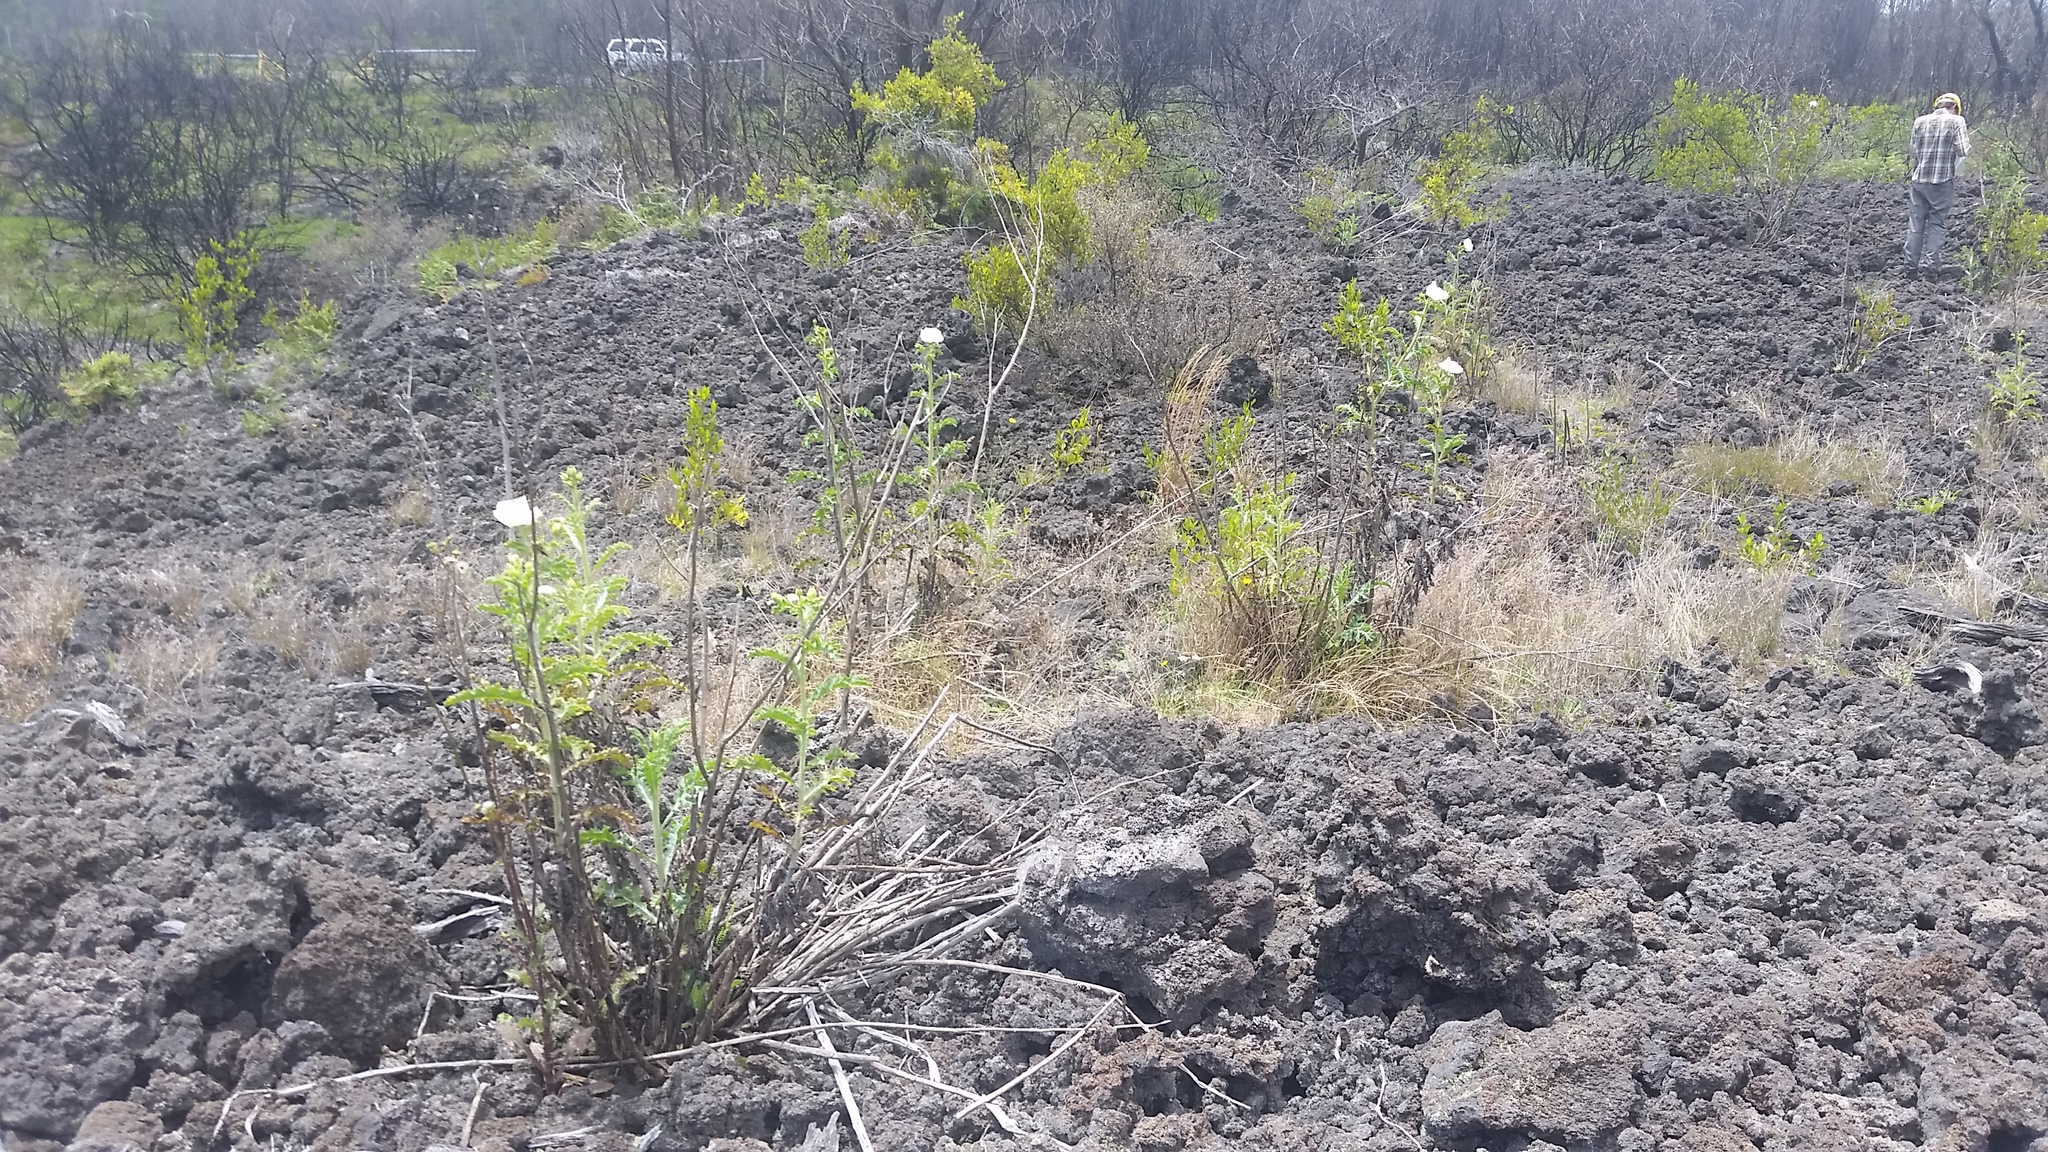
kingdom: Plantae
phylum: Tracheophyta
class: Magnoliopsida
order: Ranunculales
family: Papaveraceae
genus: Argemone
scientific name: Argemone glauca
